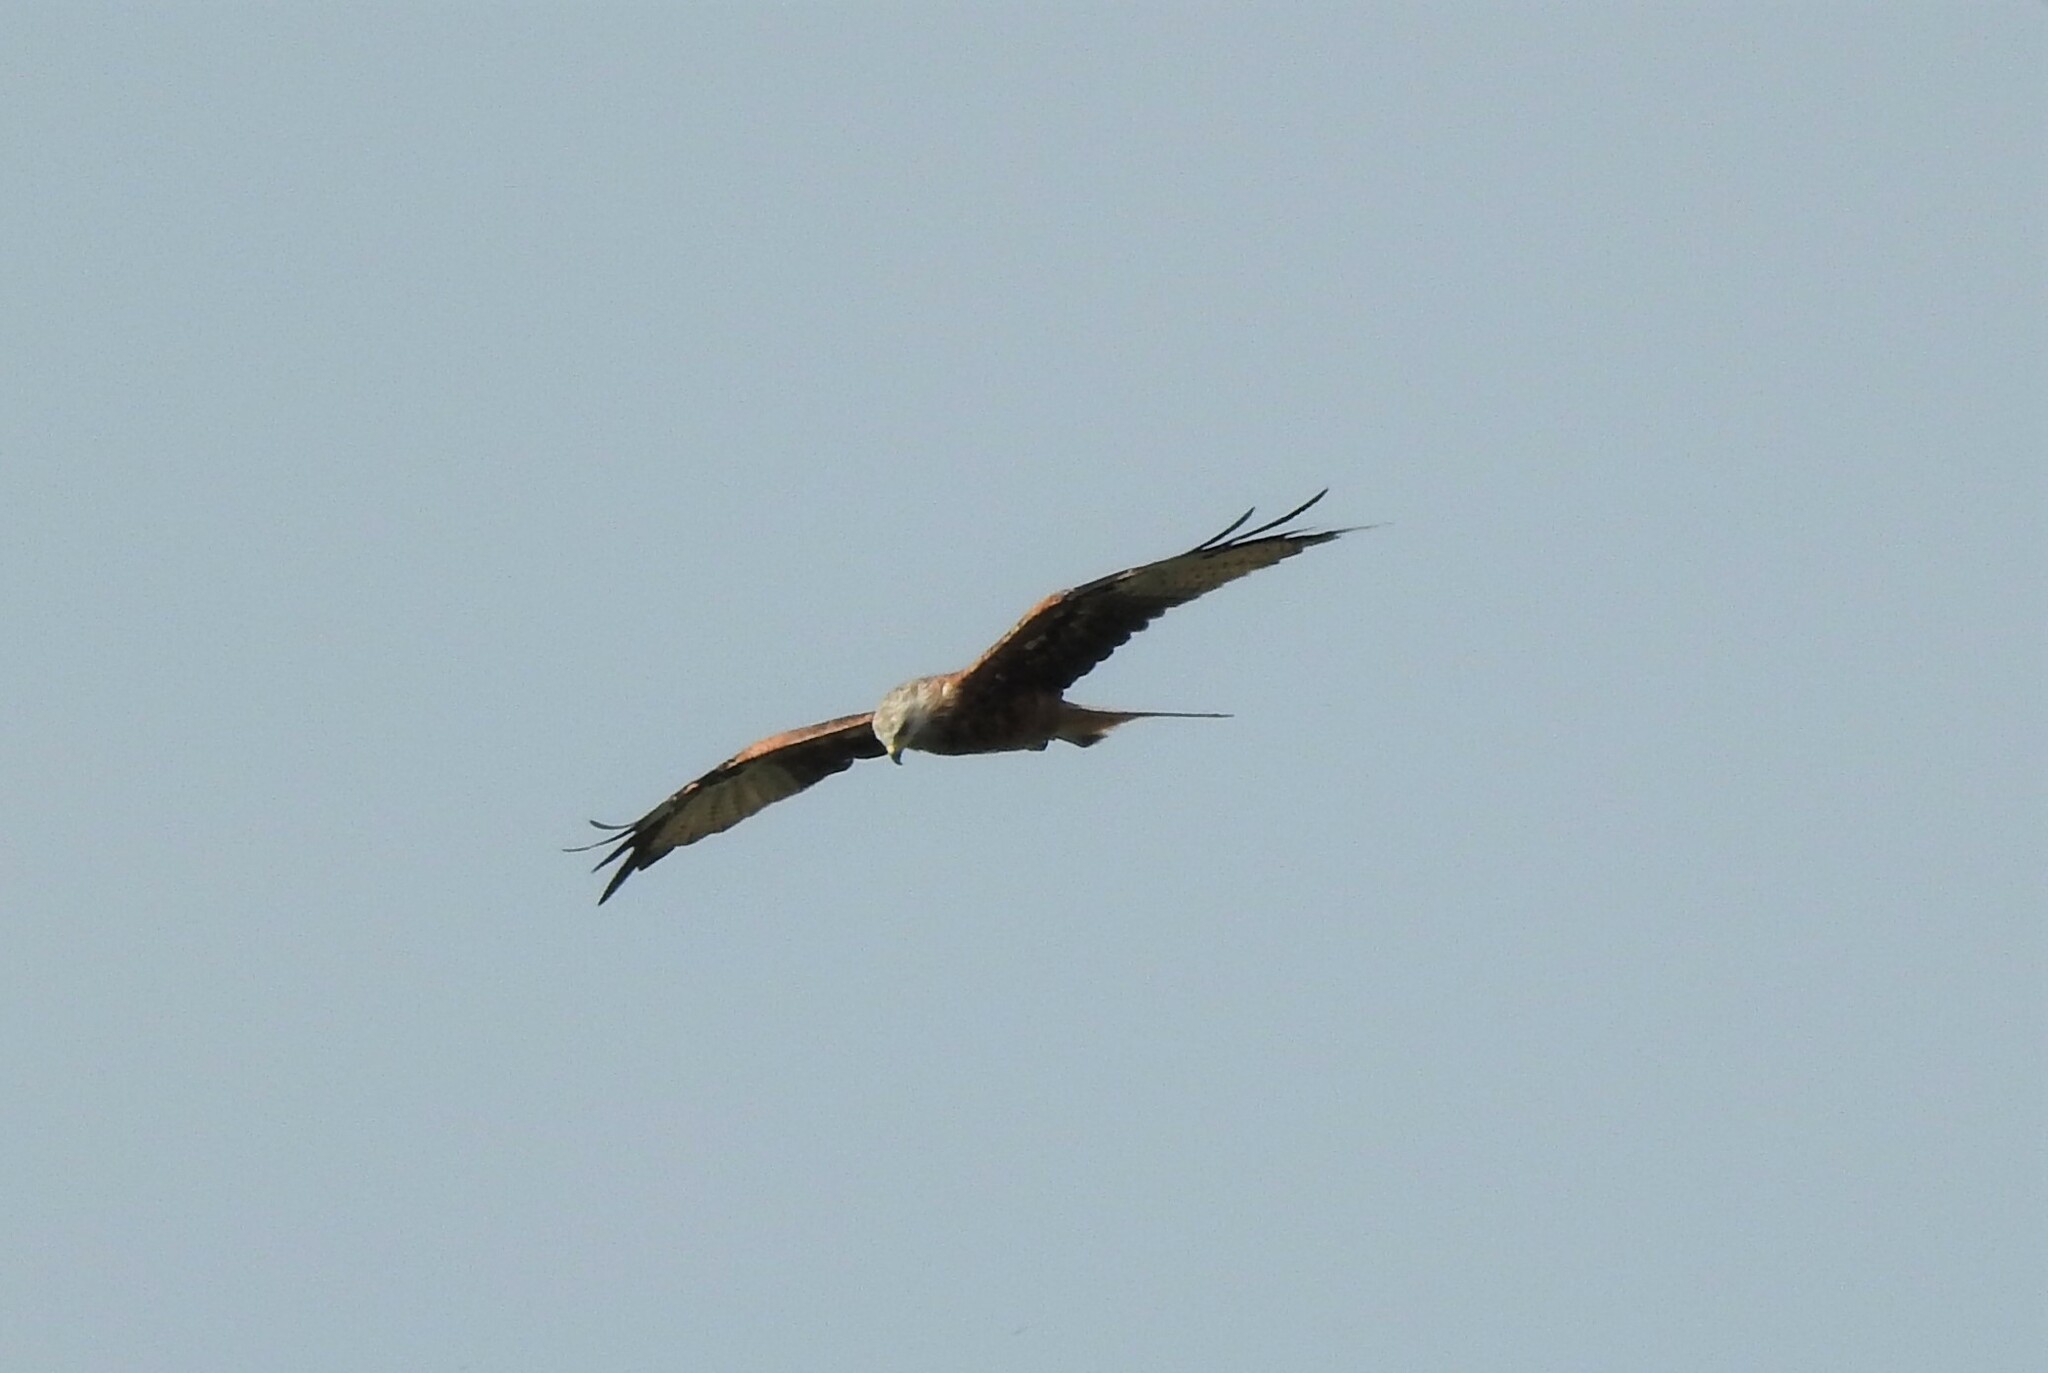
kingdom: Animalia
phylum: Chordata
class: Aves
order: Accipitriformes
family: Accipitridae
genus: Milvus
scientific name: Milvus milvus
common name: Red kite
